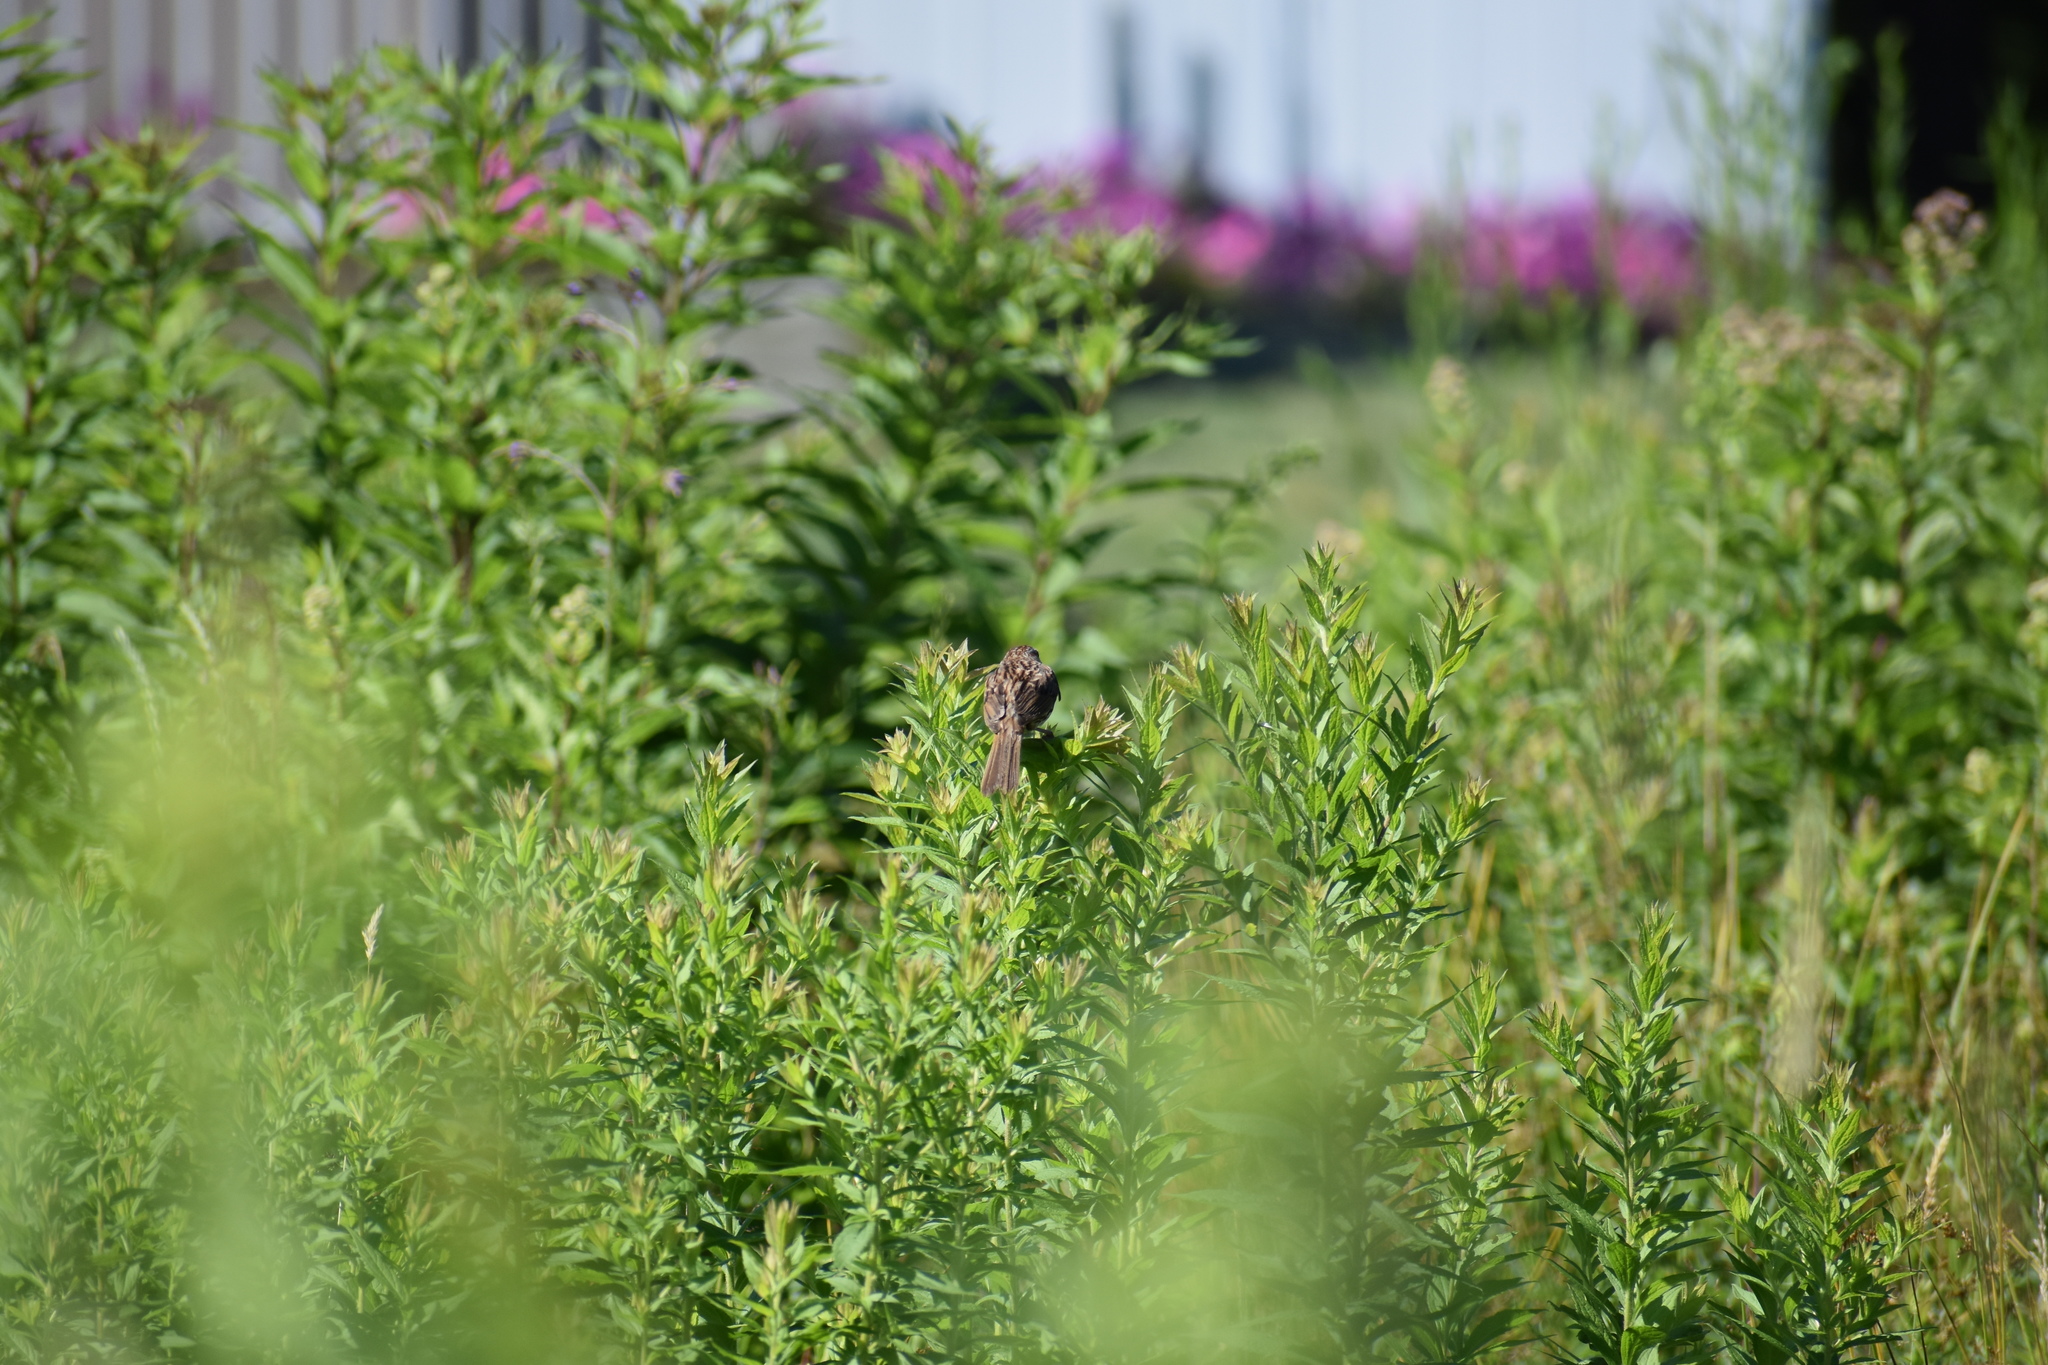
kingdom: Animalia
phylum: Chordata
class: Aves
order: Passeriformes
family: Passerellidae
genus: Melospiza
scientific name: Melospiza melodia
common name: Song sparrow
